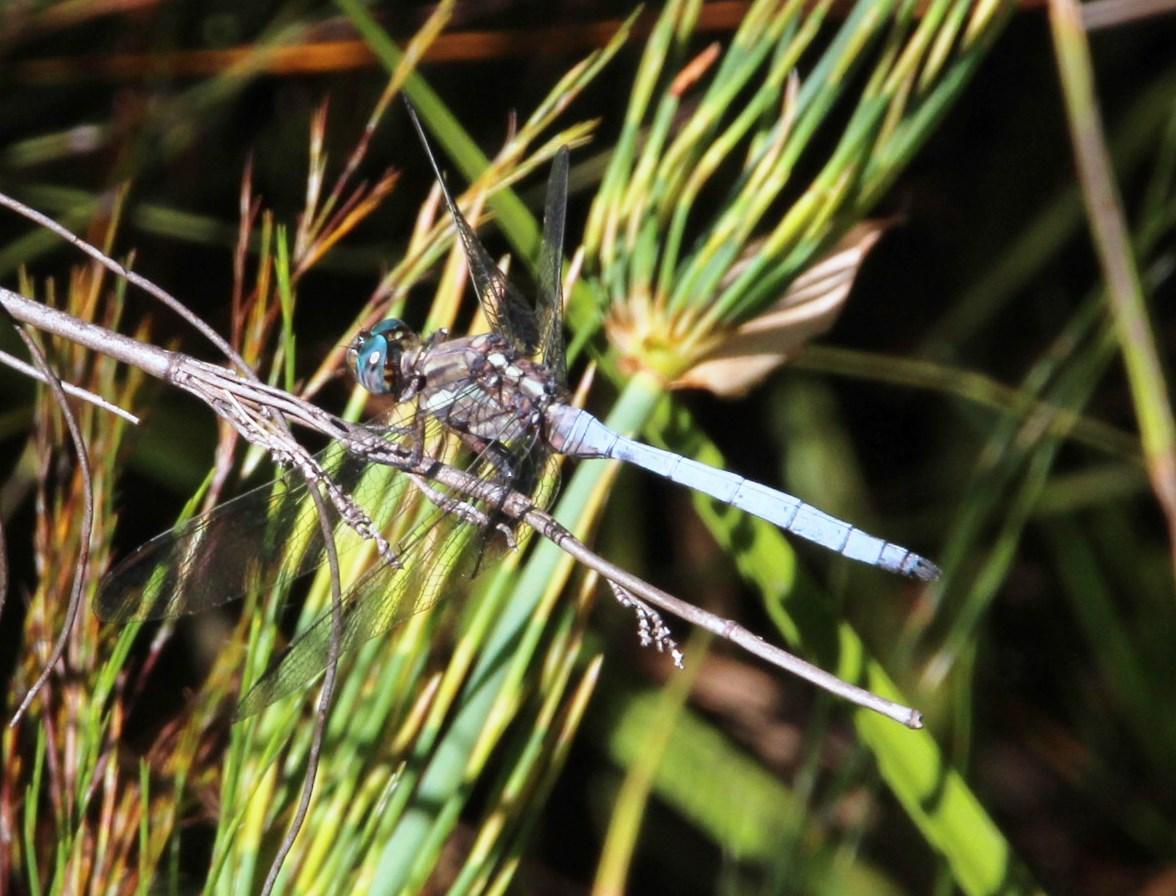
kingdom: Animalia
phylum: Arthropoda
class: Insecta
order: Odonata
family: Libellulidae
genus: Orthetrum
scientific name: Orthetrum julia
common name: Julia skimmer
